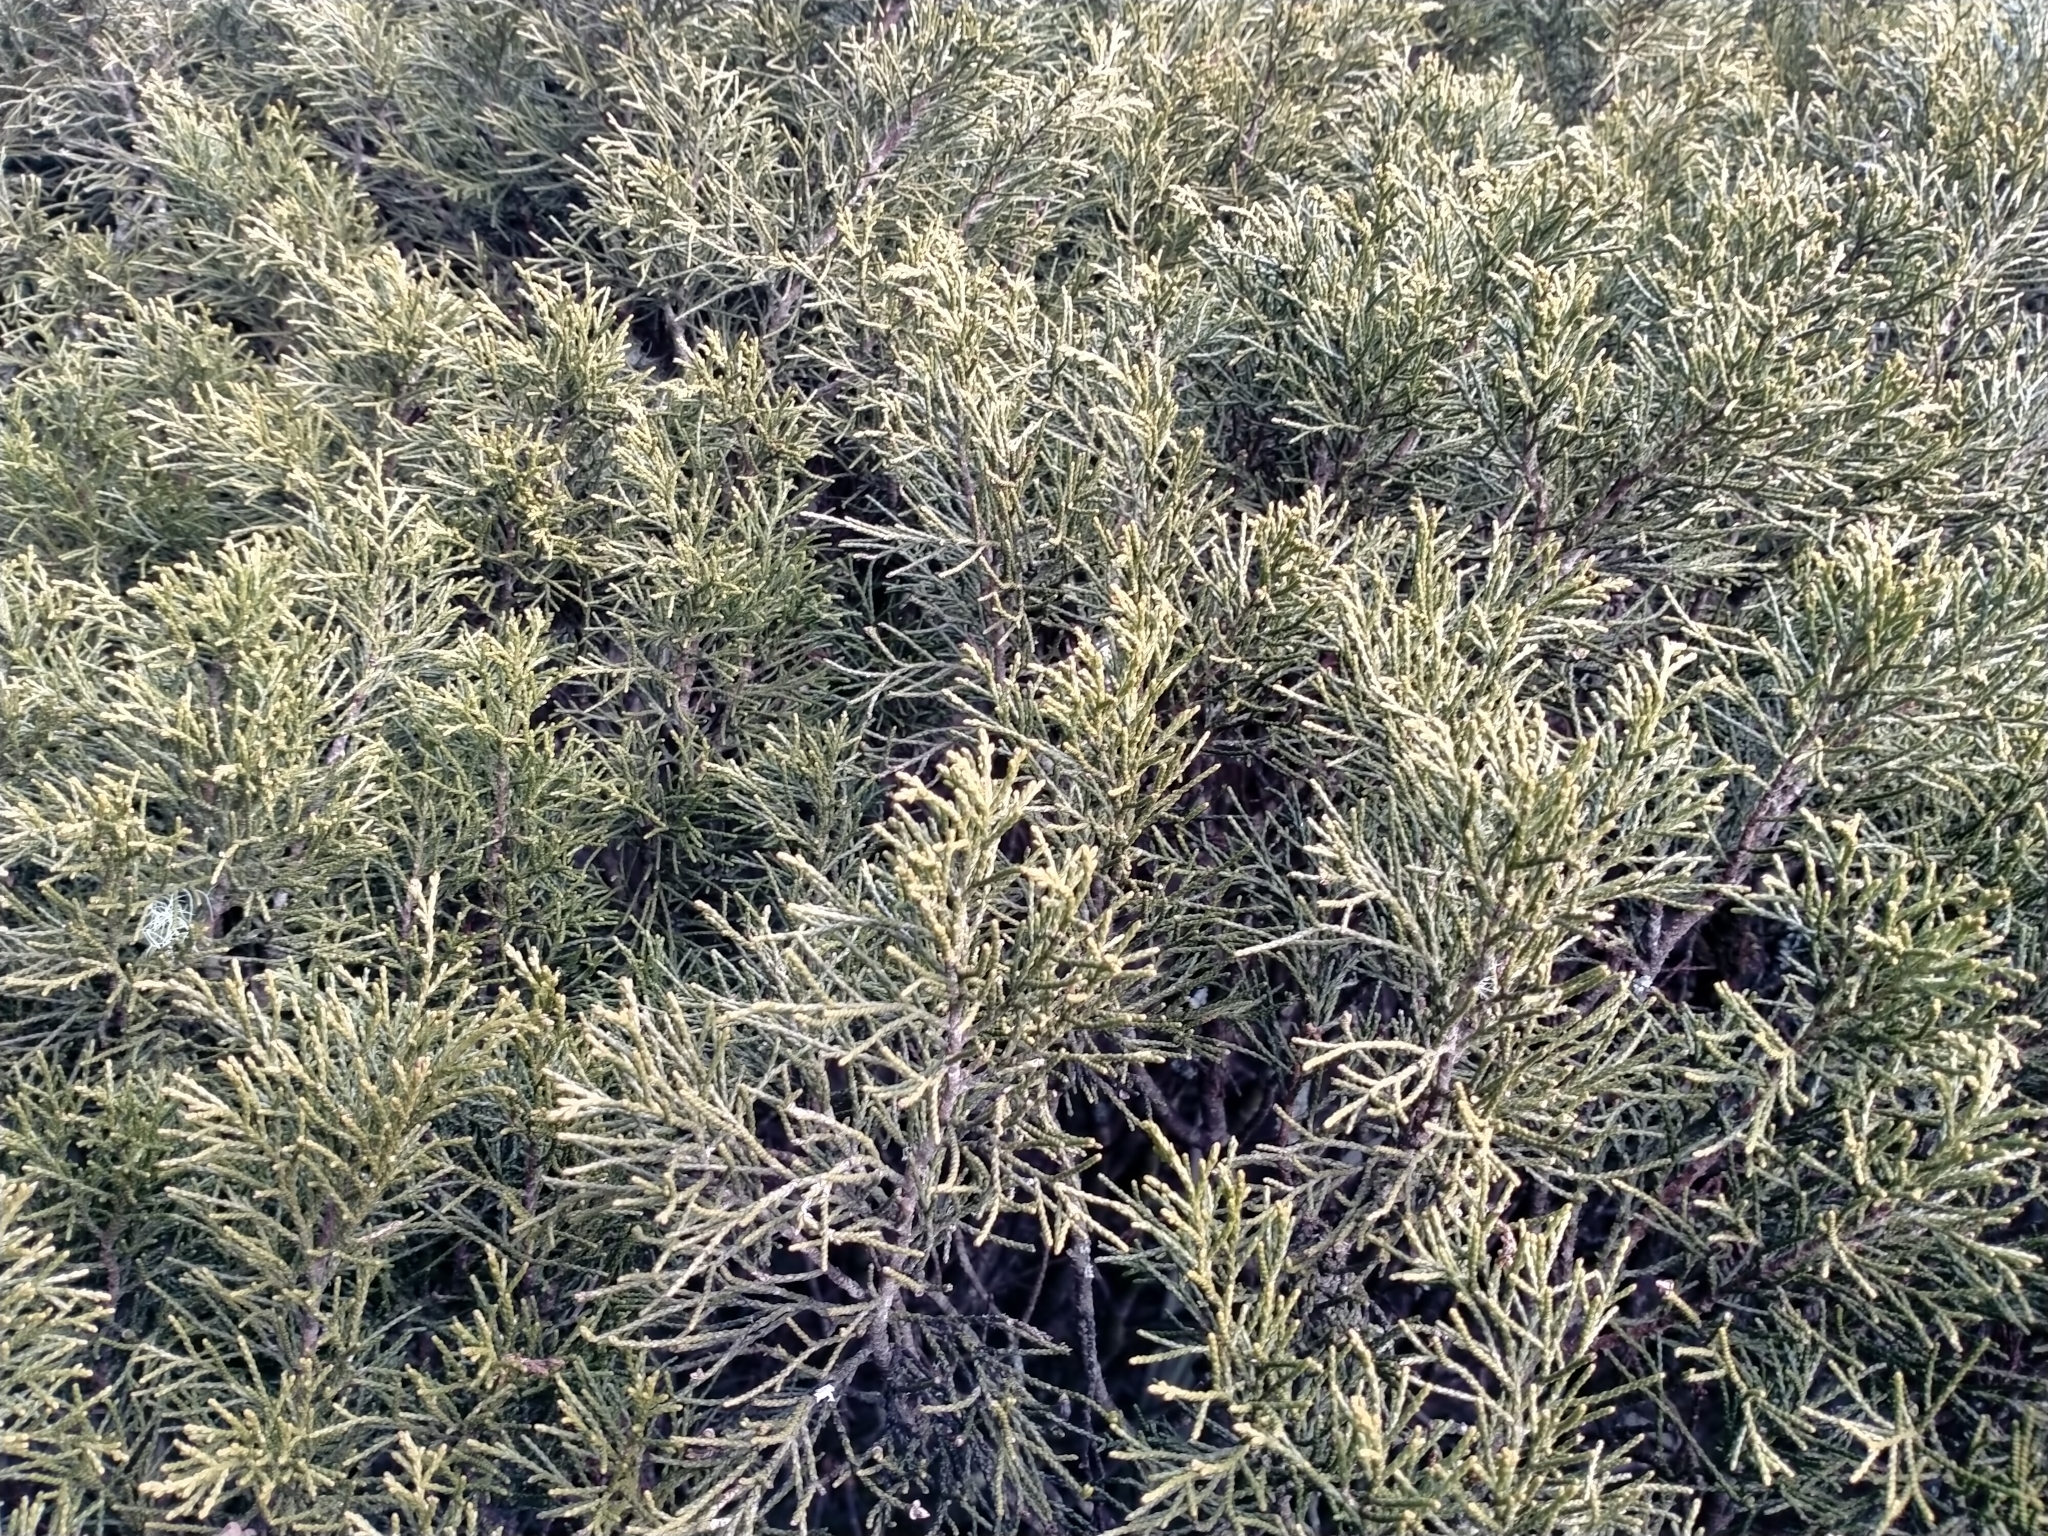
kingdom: Plantae
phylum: Tracheophyta
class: Pinopsida
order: Pinales
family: Podocarpaceae
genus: Halocarpus
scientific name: Halocarpus bidwillii
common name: Bog pine
